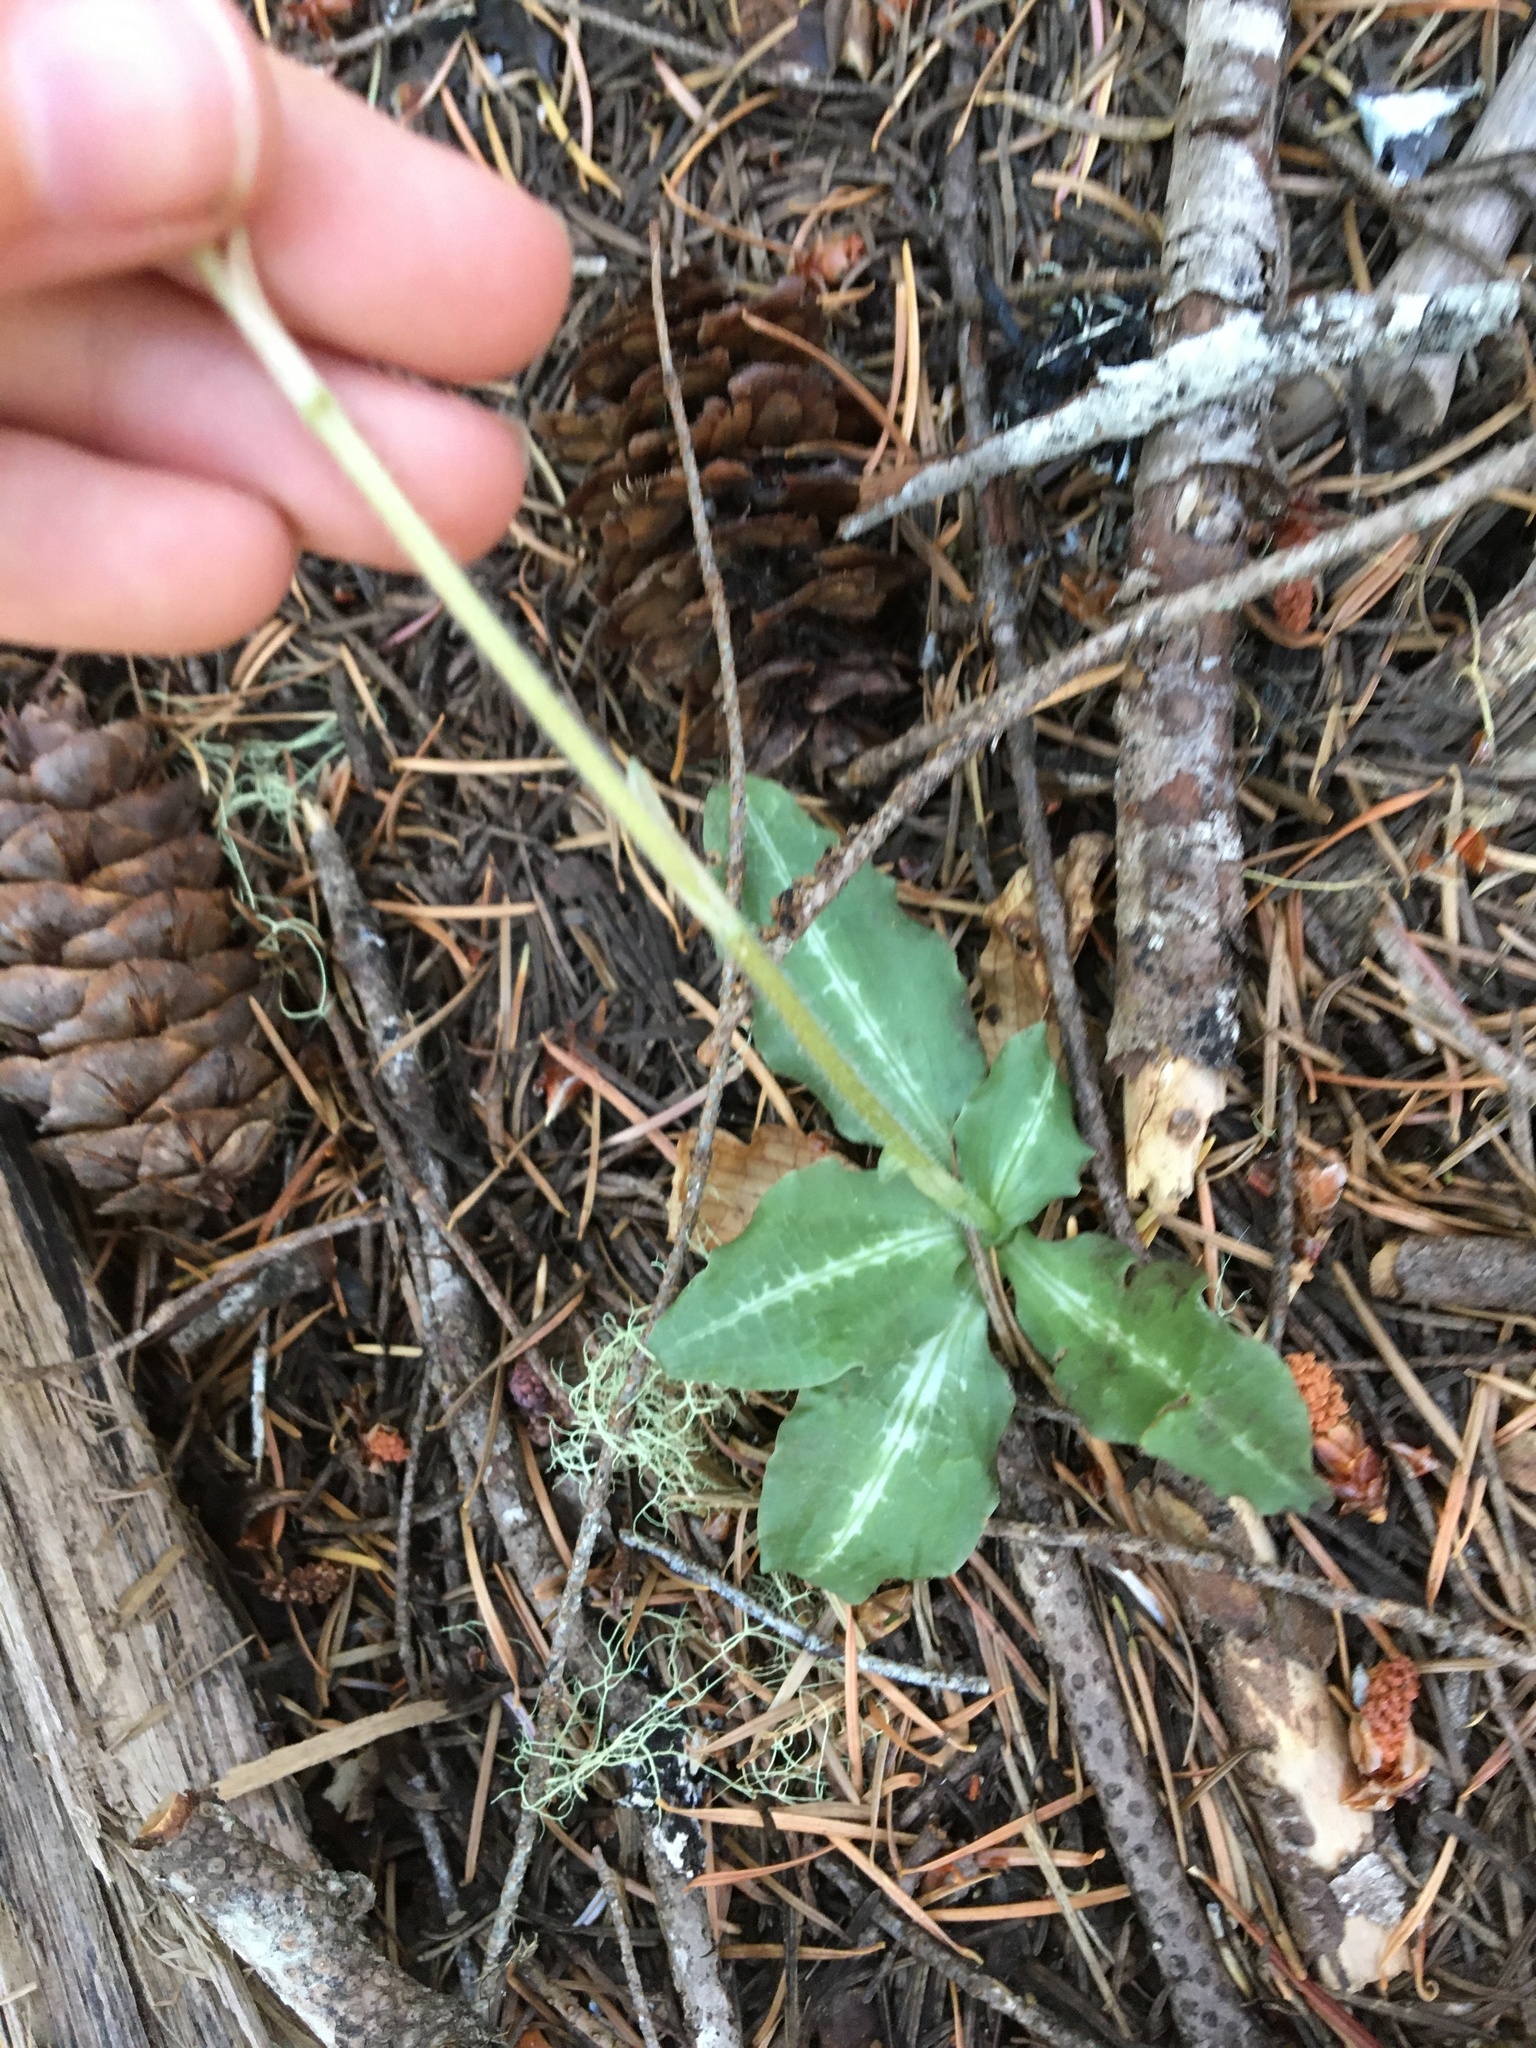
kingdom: Plantae
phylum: Tracheophyta
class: Liliopsida
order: Asparagales
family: Orchidaceae
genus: Goodyera
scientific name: Goodyera oblongifolia
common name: Giant rattlesnake-plantain
